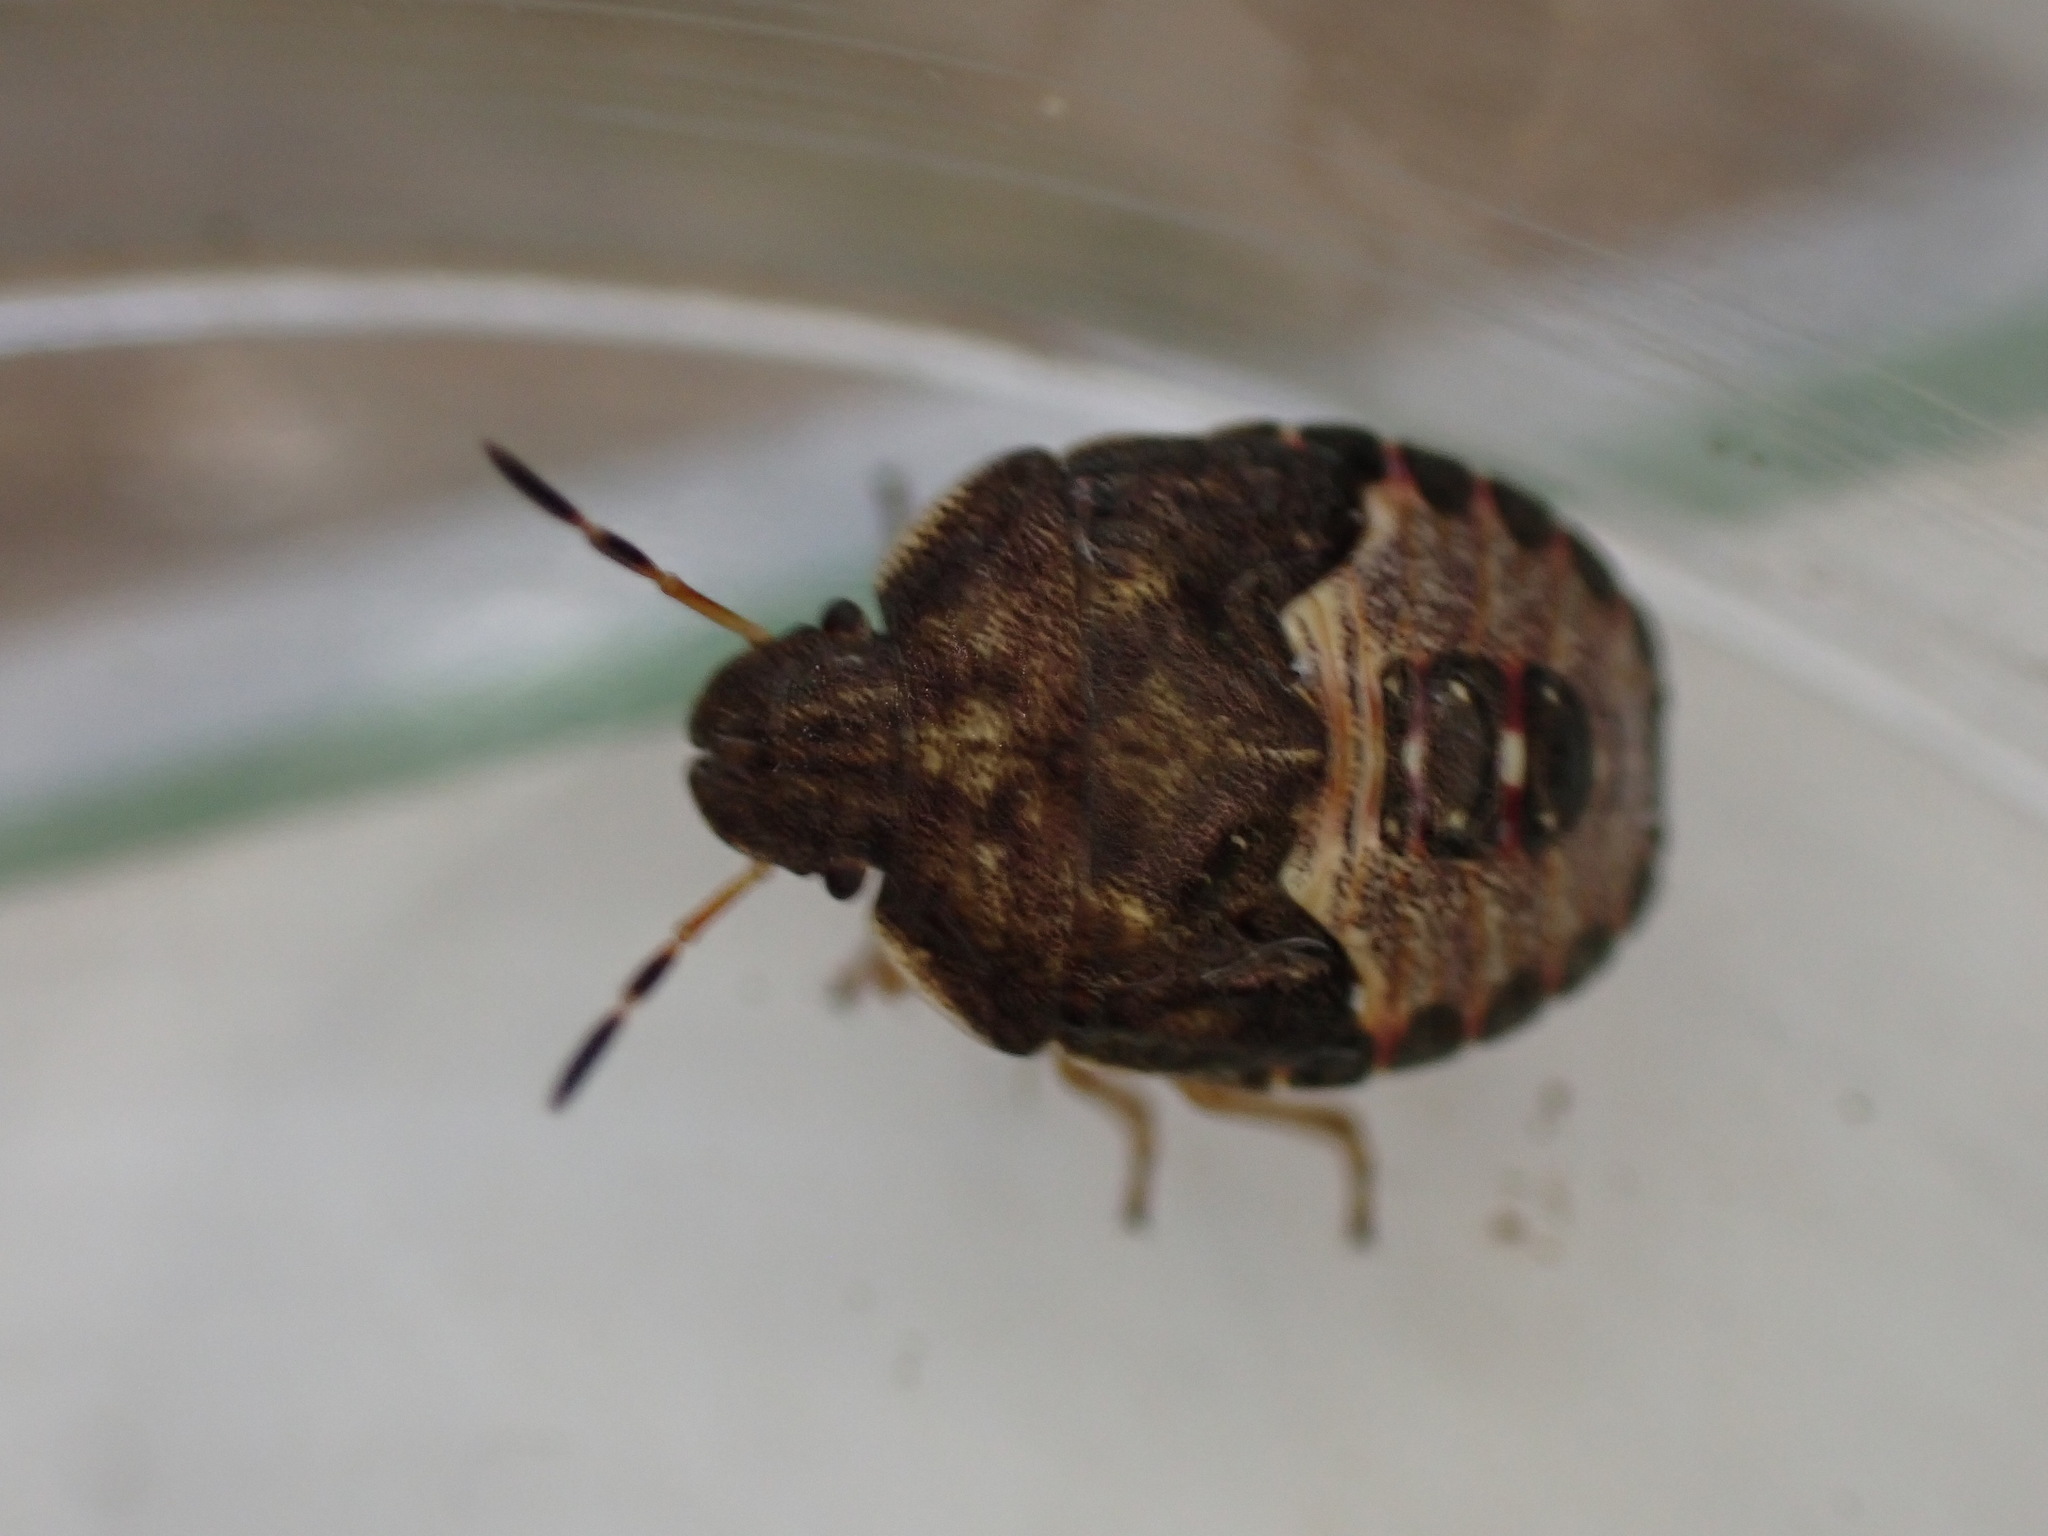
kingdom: Animalia
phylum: Arthropoda
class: Insecta
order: Hemiptera
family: Pentatomidae
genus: Holcostethus
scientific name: Holcostethus strictus
